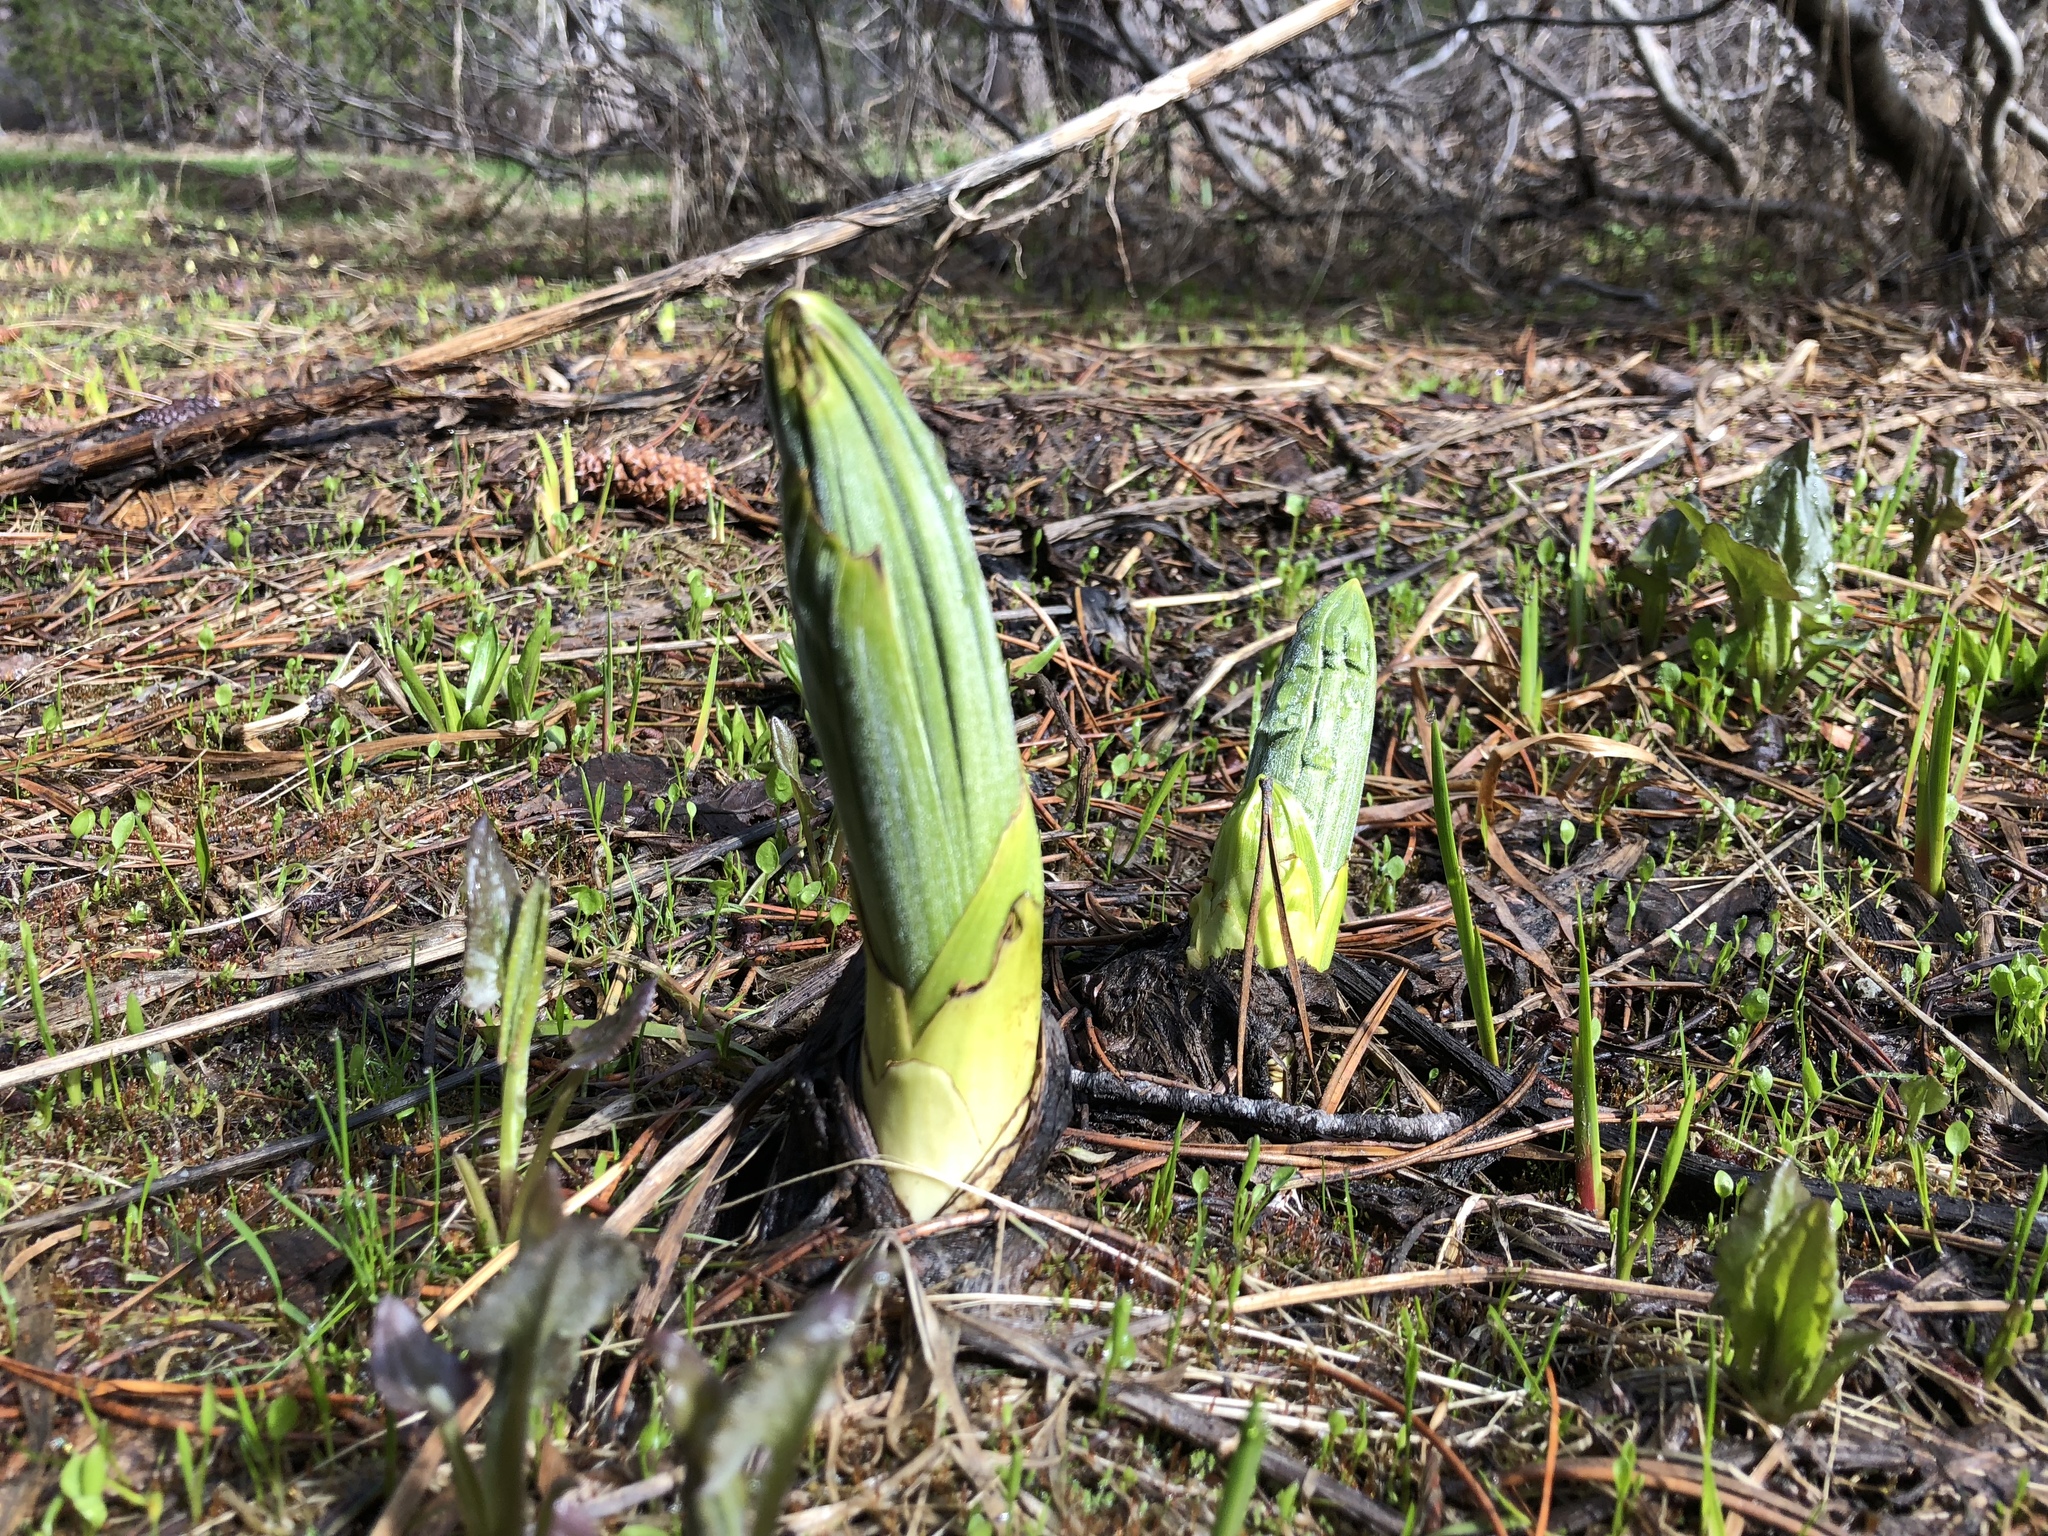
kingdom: Plantae
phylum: Tracheophyta
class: Liliopsida
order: Liliales
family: Melanthiaceae
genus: Veratrum
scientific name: Veratrum californicum
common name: California veratrum
